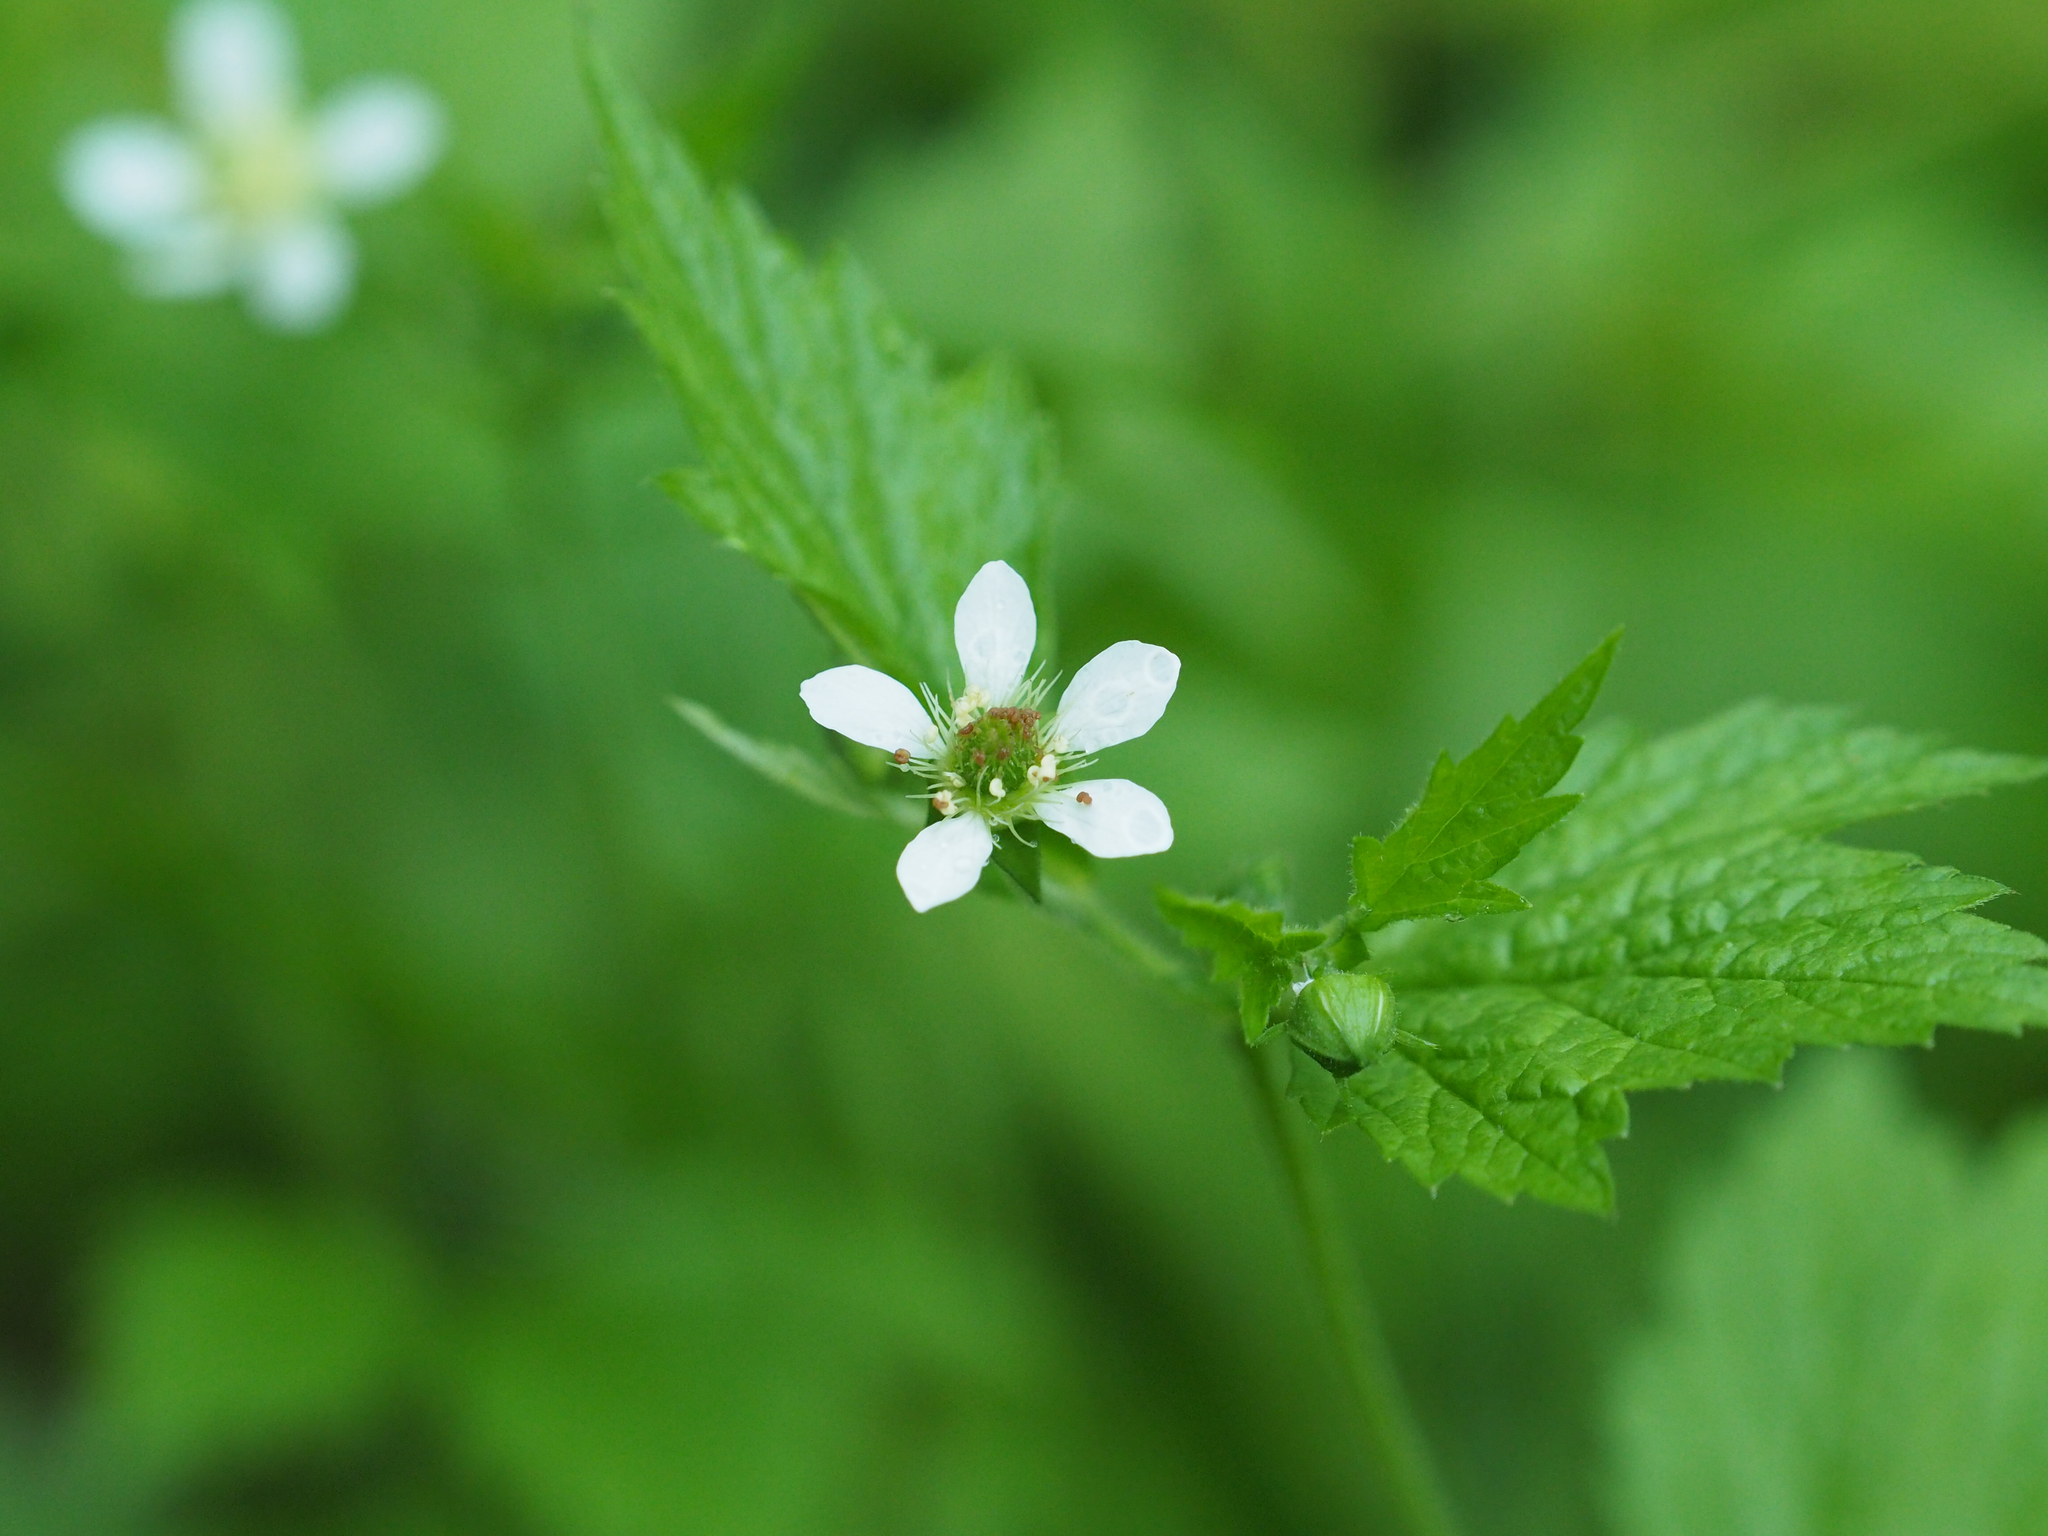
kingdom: Plantae
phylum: Tracheophyta
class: Magnoliopsida
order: Rosales
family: Rosaceae
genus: Geum
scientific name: Geum canadense
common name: White avens
